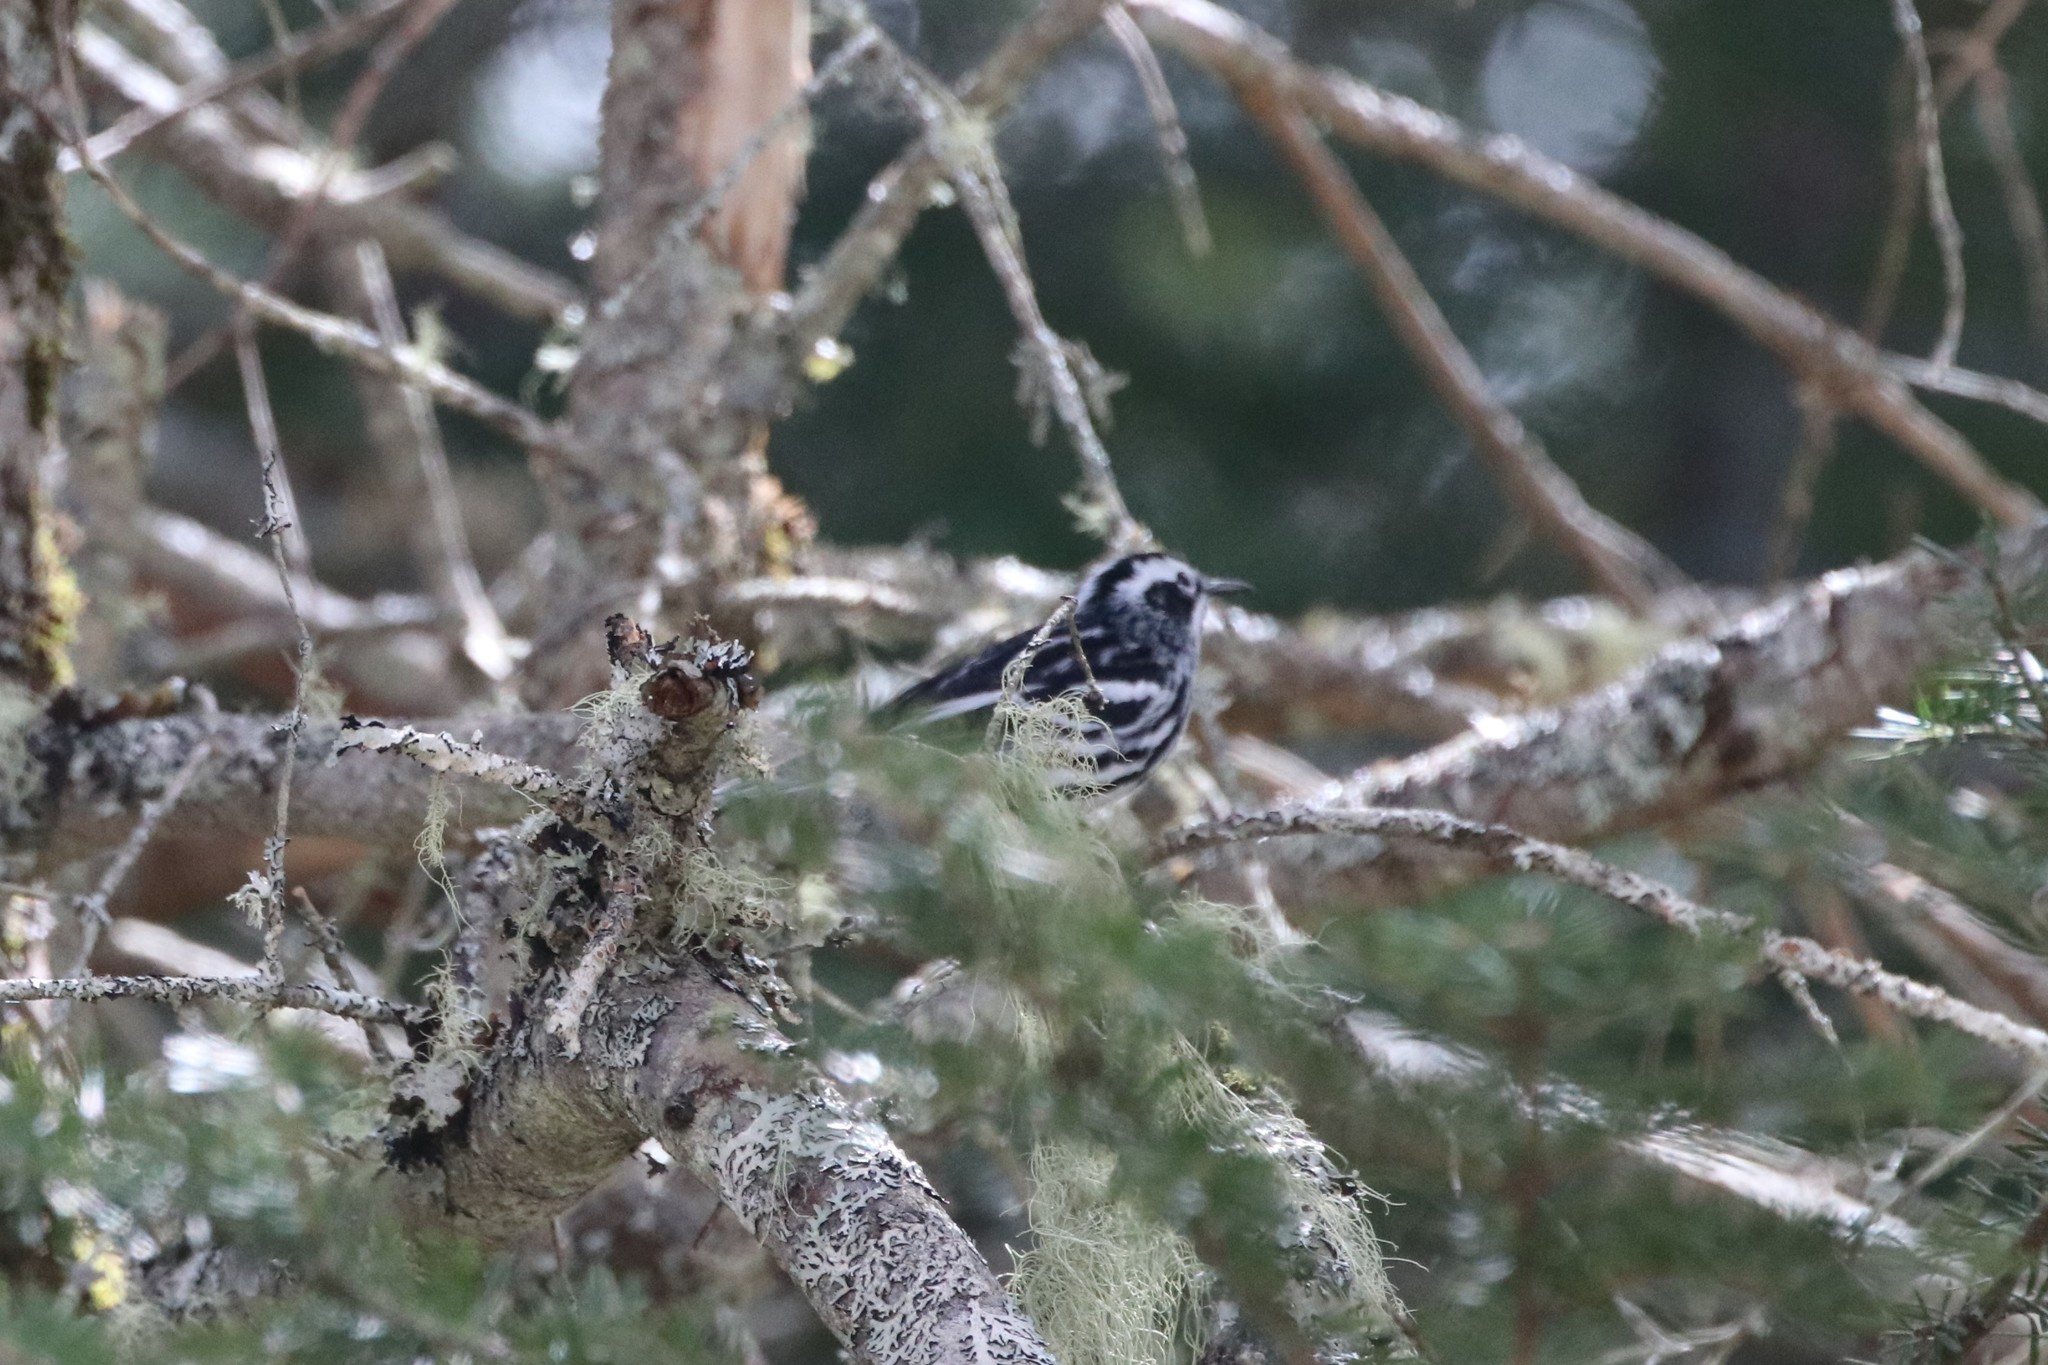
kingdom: Animalia
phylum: Chordata
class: Aves
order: Passeriformes
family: Parulidae
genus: Mniotilta
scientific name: Mniotilta varia
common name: Black-and-white warbler
